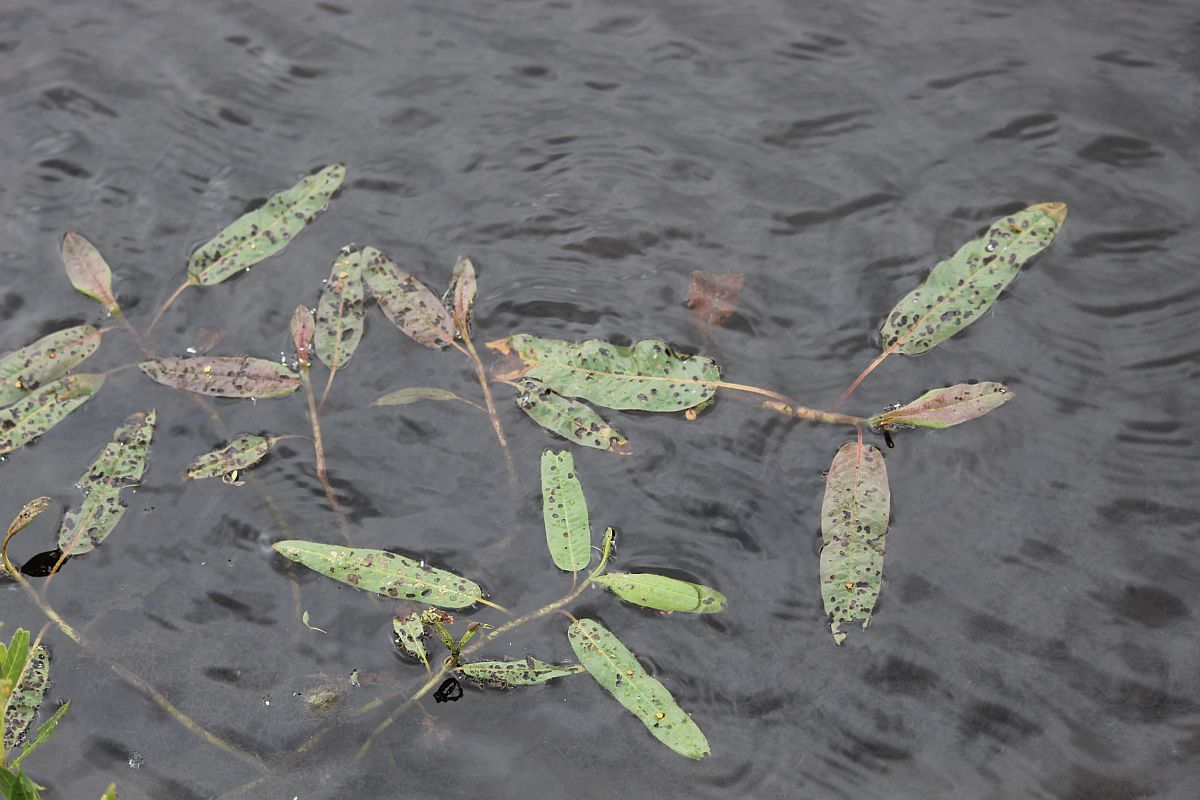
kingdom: Plantae
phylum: Tracheophyta
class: Magnoliopsida
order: Caryophyllales
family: Polygonaceae
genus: Persicaria
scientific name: Persicaria amphibia
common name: Amphibious bistort
